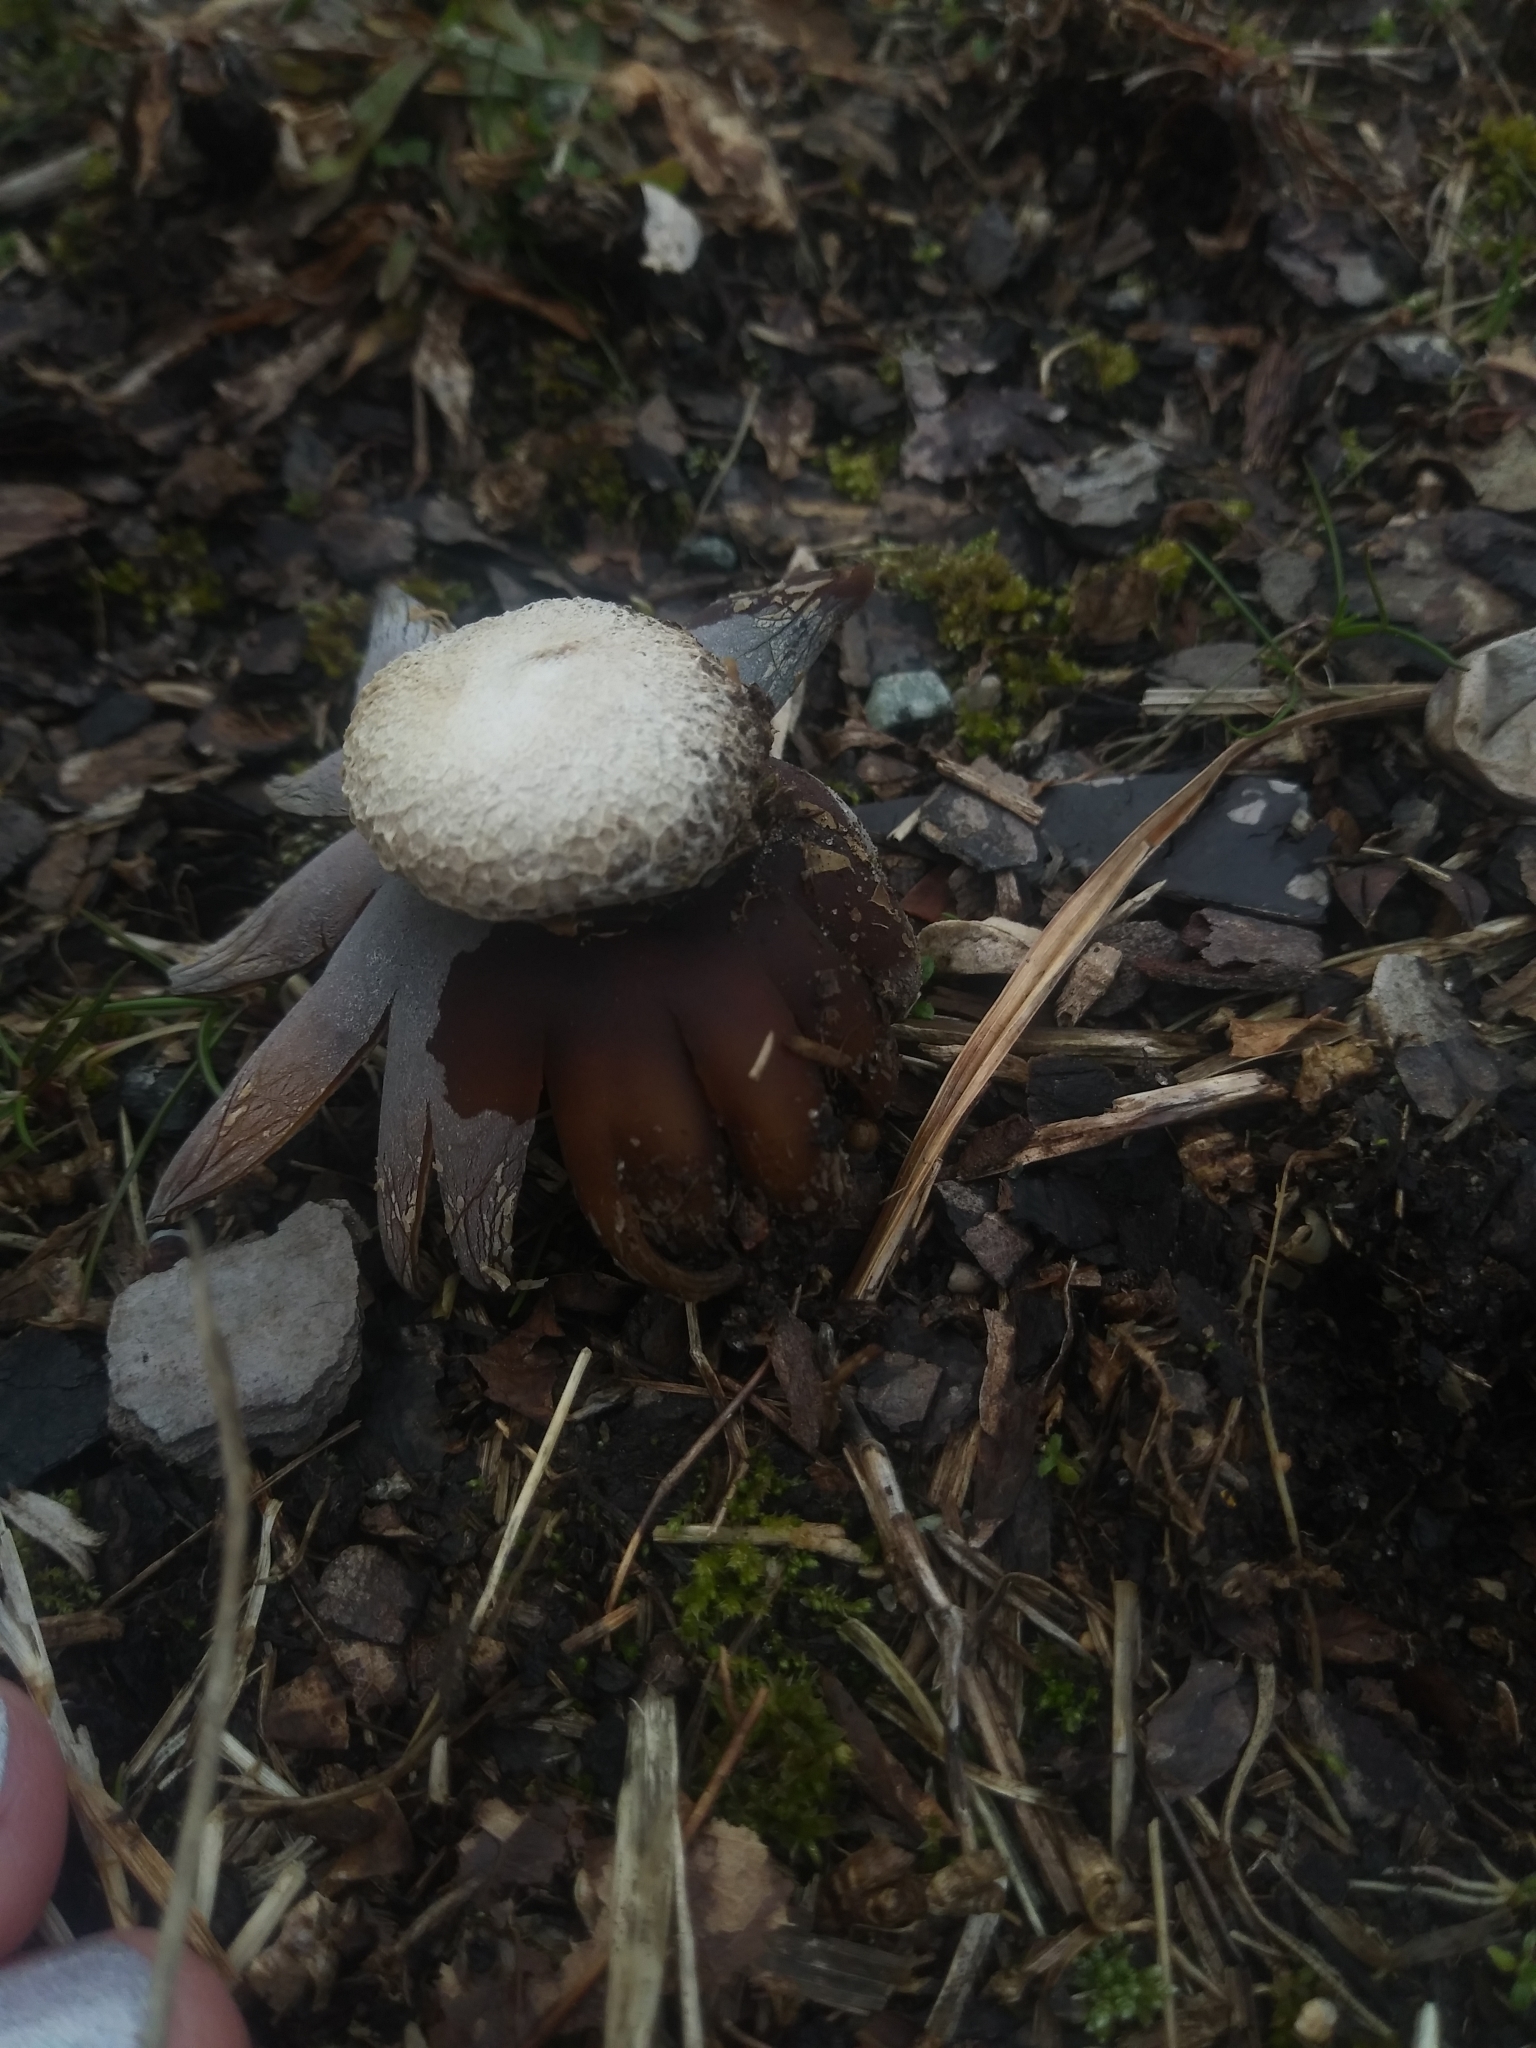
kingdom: Fungi
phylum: Basidiomycota
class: Agaricomycetes
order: Boletales
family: Diplocystidiaceae
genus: Astraeus
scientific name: Astraeus hygrometricus
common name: Barometer earthstar
